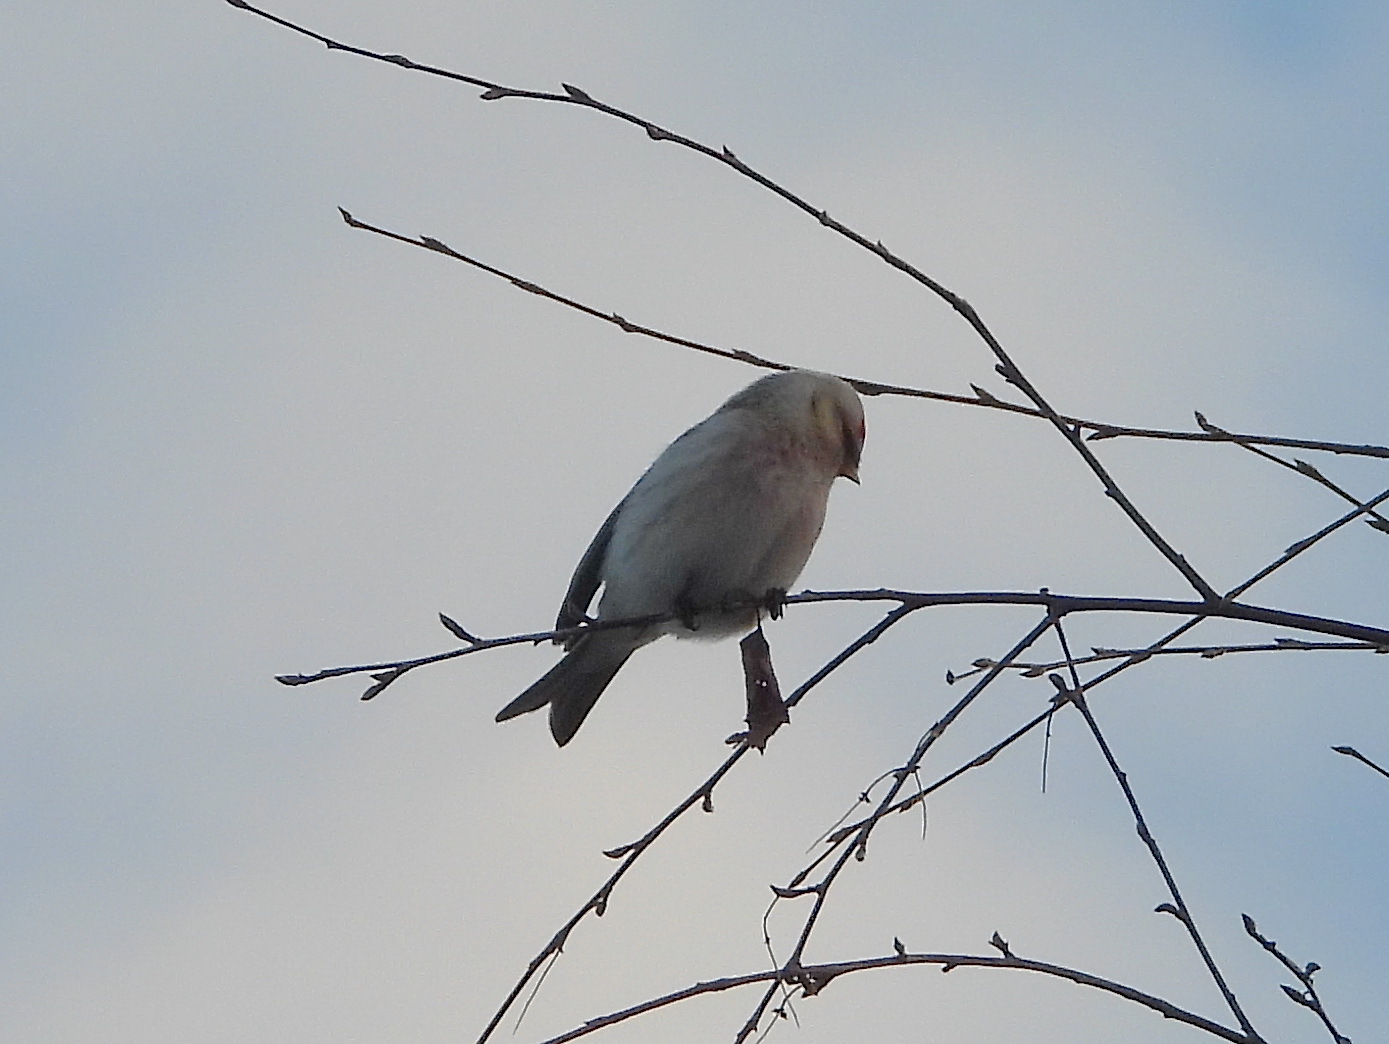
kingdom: Animalia
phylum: Chordata
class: Aves
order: Passeriformes
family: Fringillidae
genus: Acanthis
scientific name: Acanthis hornemanni
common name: Arctic redpoll
